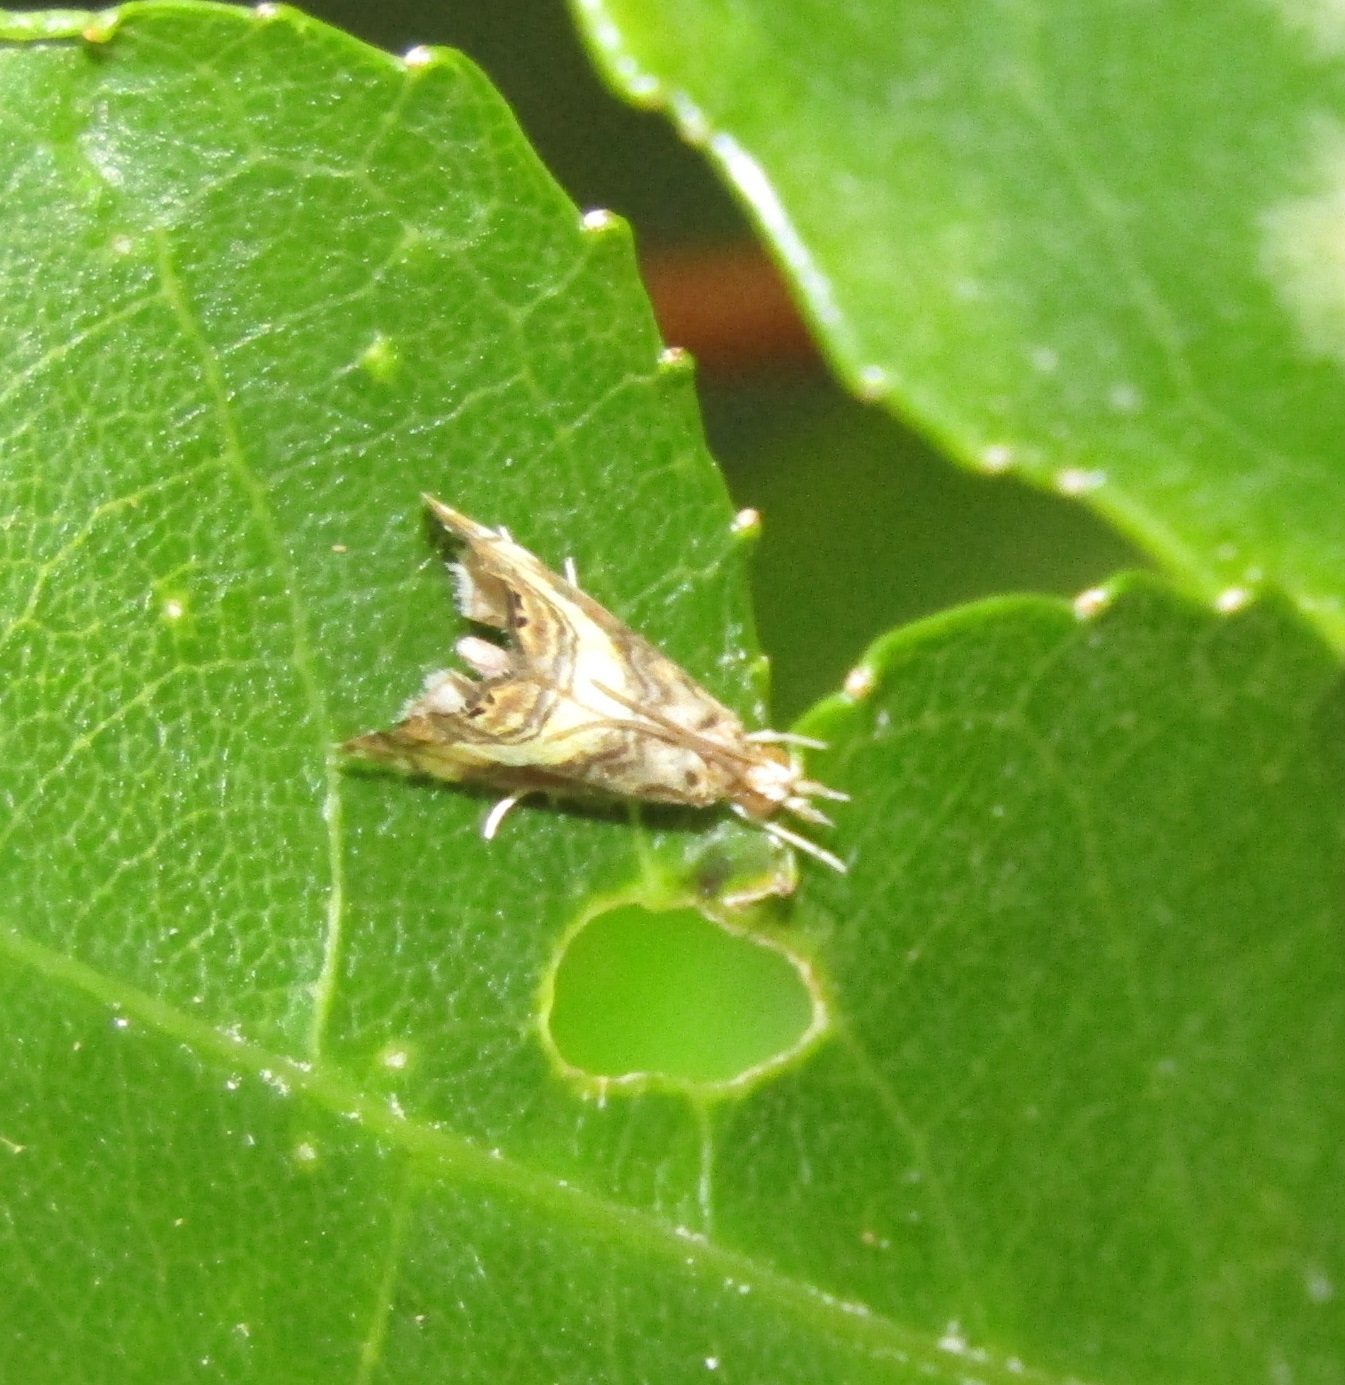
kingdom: Animalia
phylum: Arthropoda
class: Insecta
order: Lepidoptera
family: Crambidae
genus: Glaucocharis
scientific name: Glaucocharis chrysochyta
